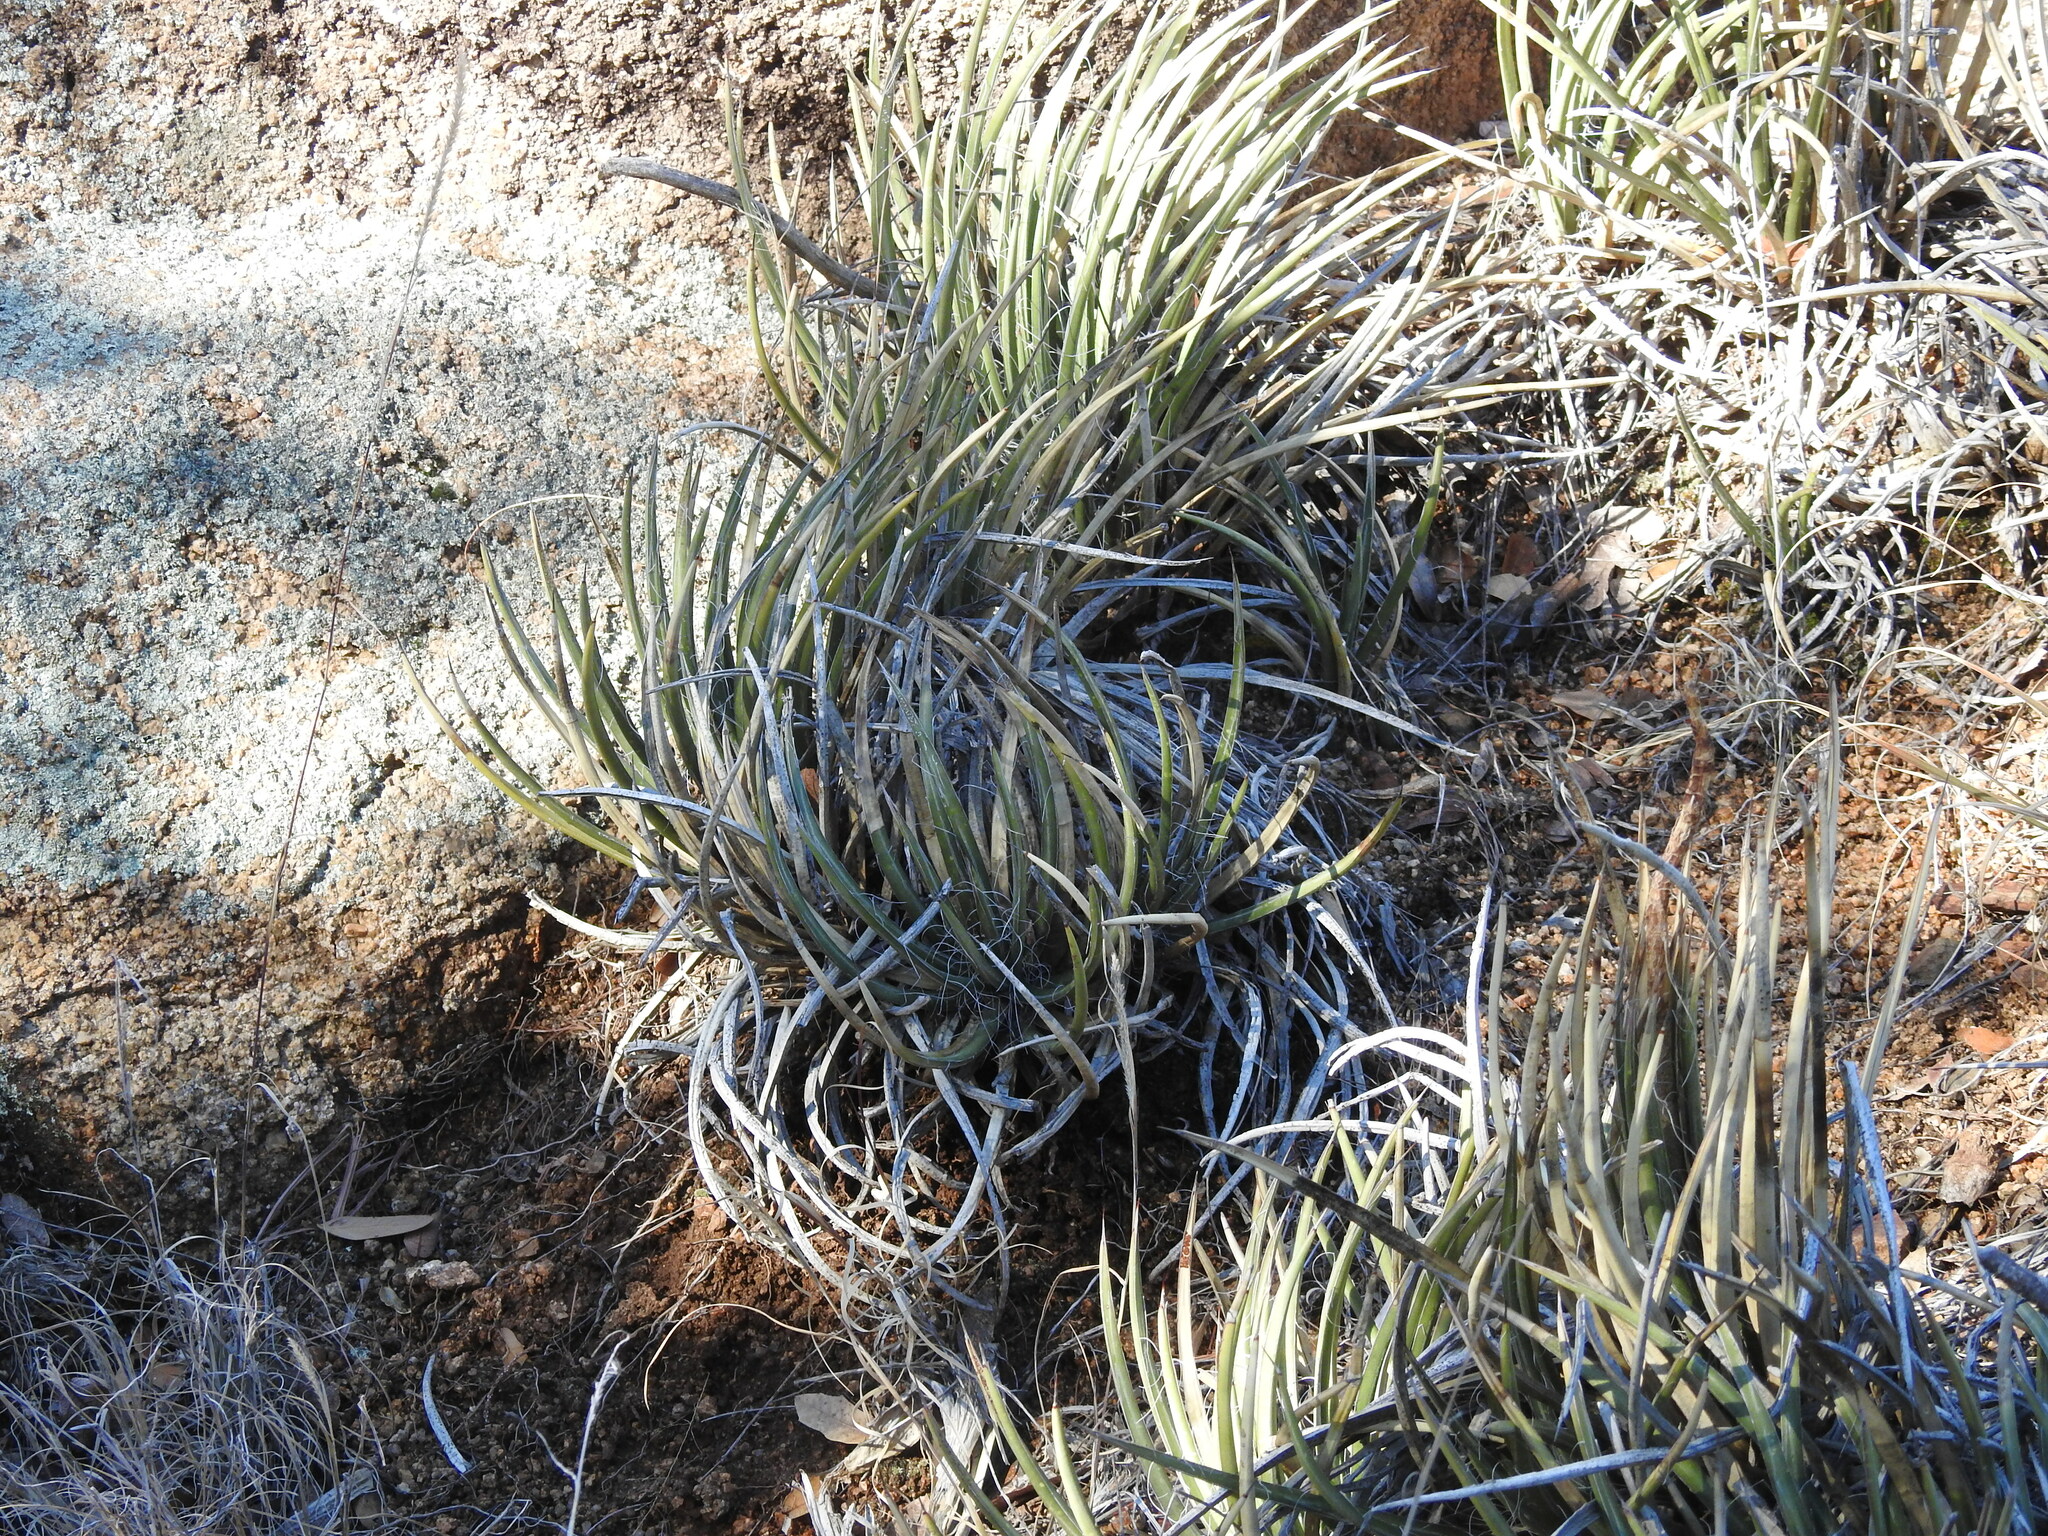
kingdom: Plantae
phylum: Tracheophyta
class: Liliopsida
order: Asparagales
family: Asparagaceae
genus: Agave
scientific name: Agave schottii
